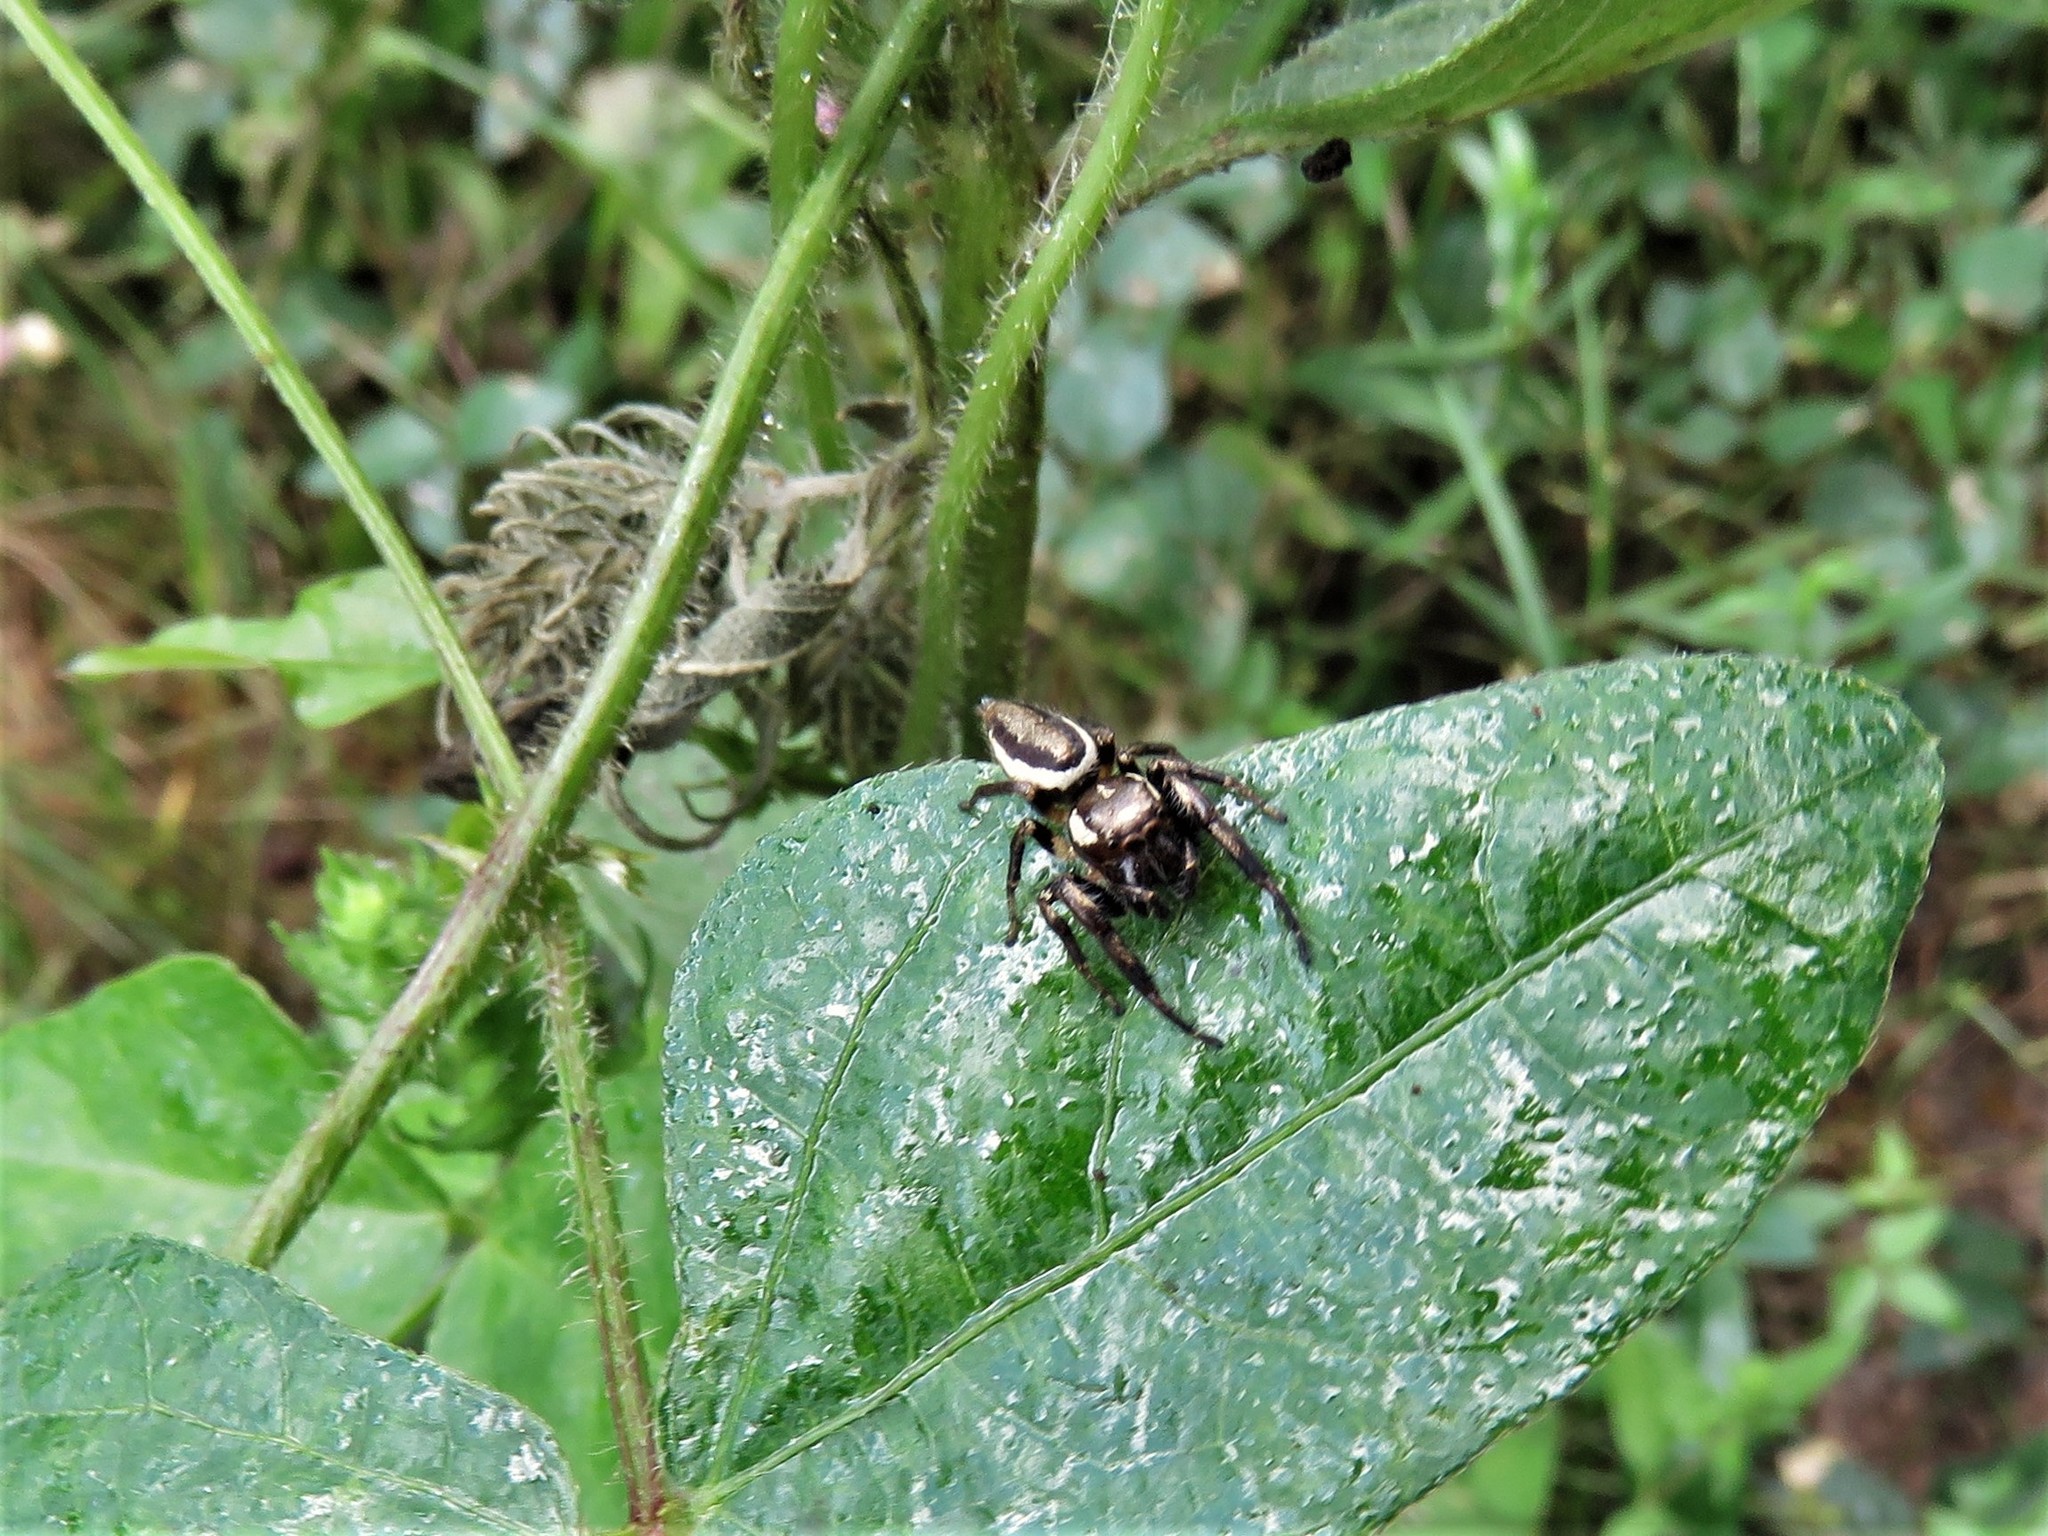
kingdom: Animalia
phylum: Arthropoda
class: Arachnida
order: Araneae
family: Salticidae
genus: Eris
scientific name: Eris militaris
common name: Bronze jumper
